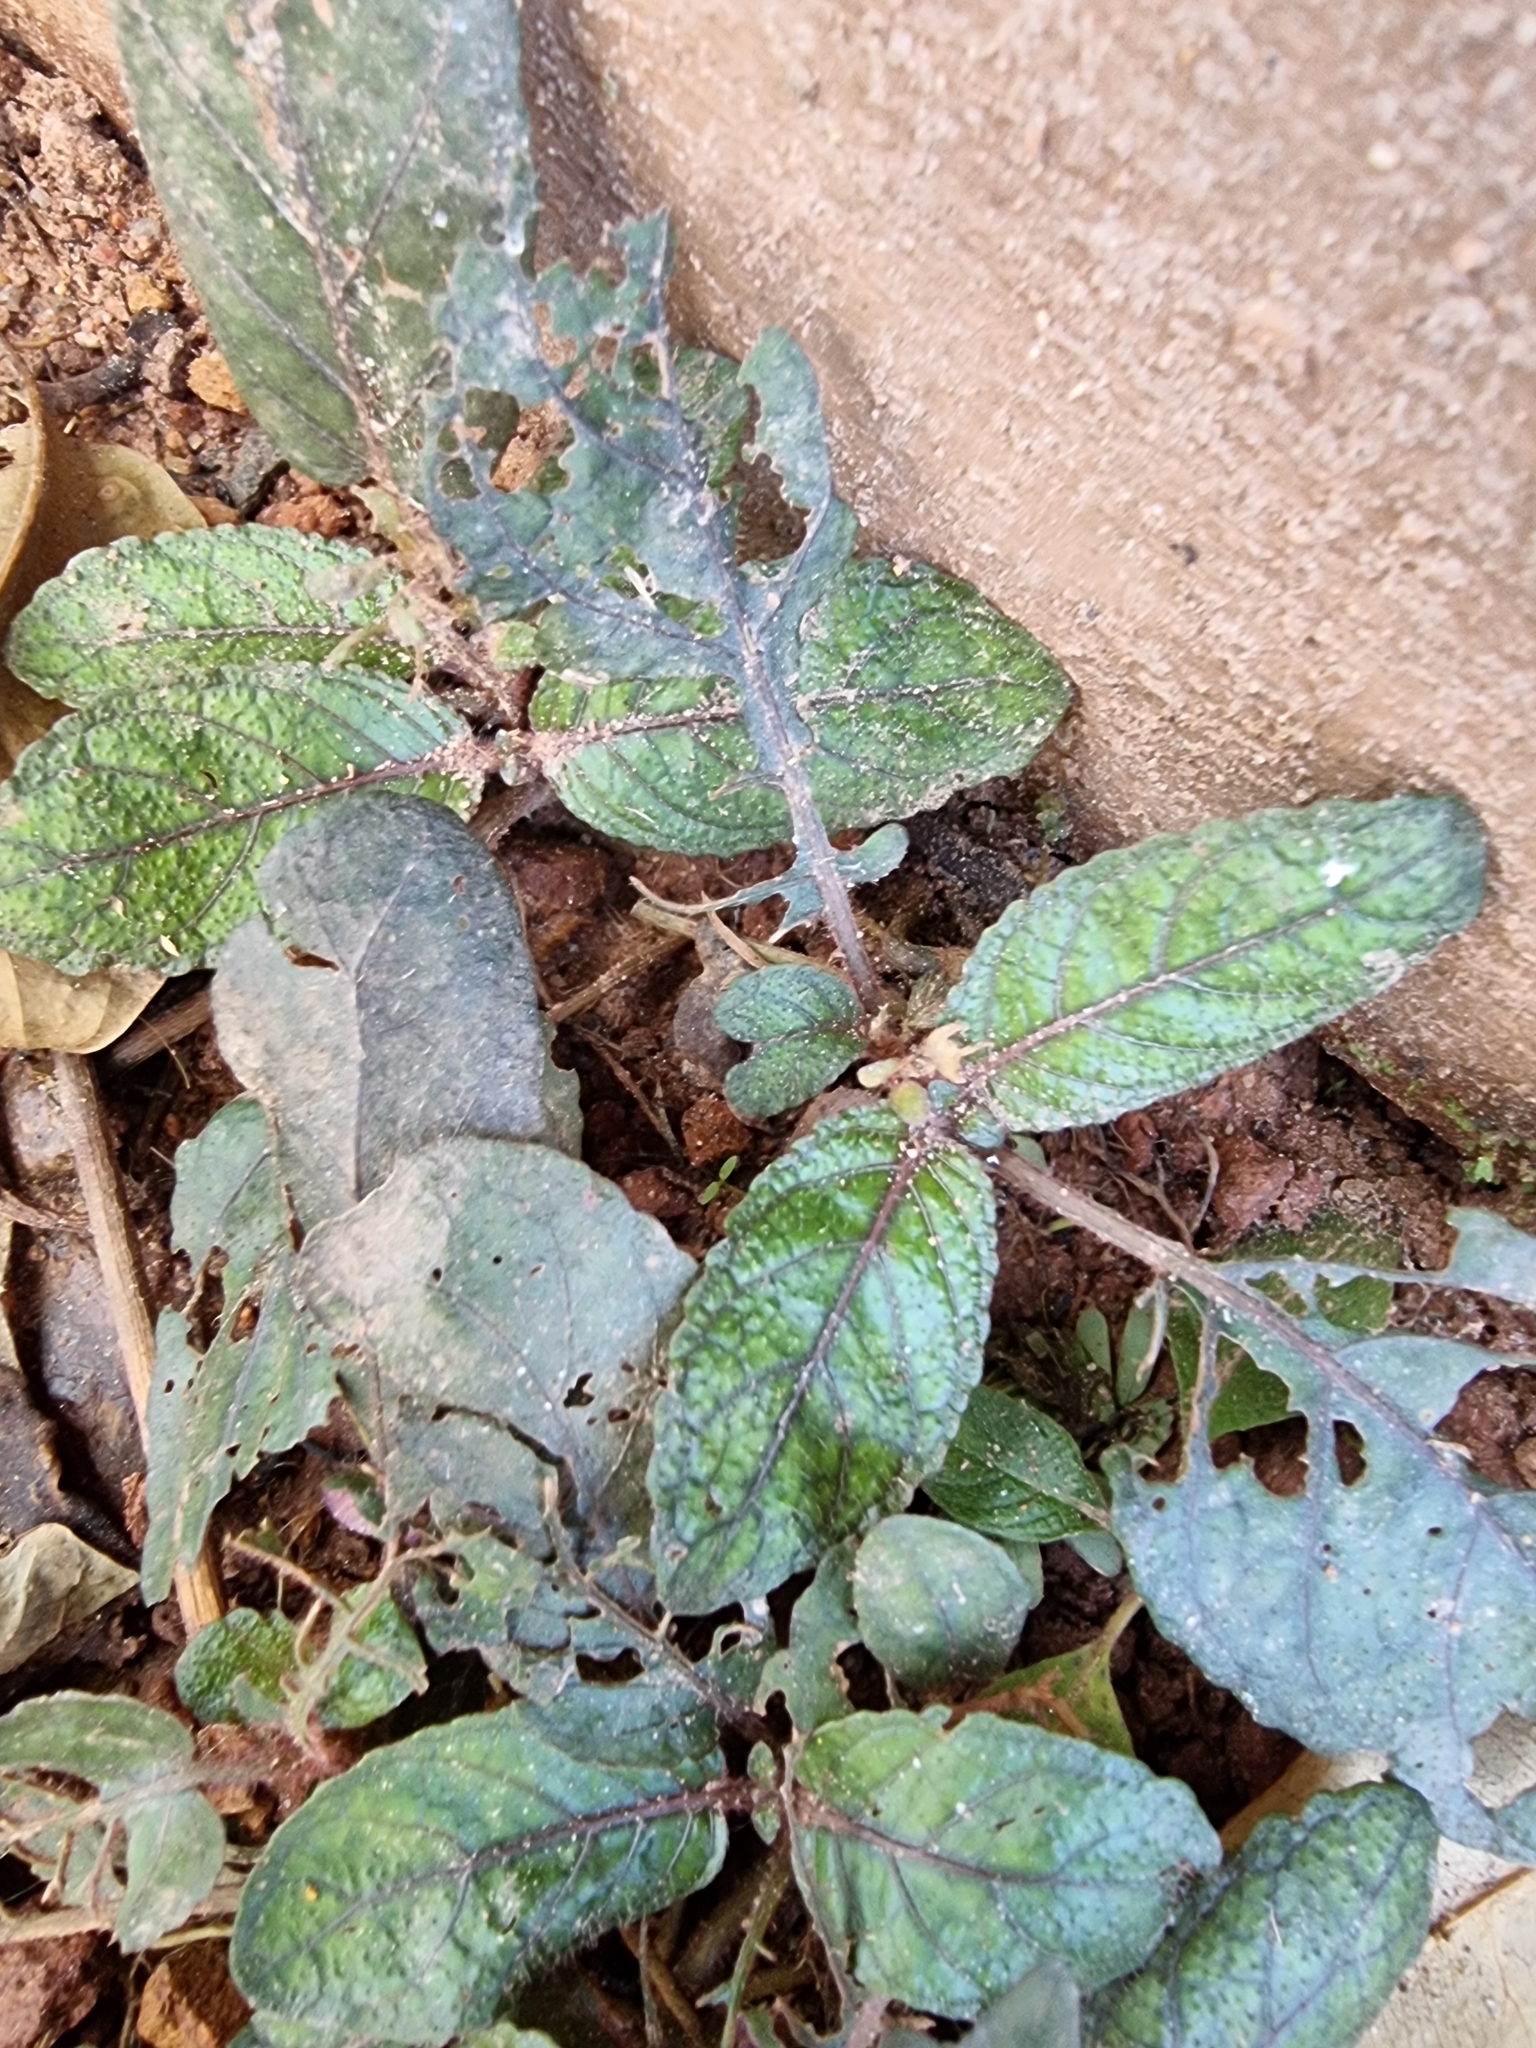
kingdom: Plantae
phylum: Tracheophyta
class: Magnoliopsida
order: Lamiales
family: Acanthaceae
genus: Strobilanthes
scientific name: Strobilanthes reptans
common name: Acanthaceae
